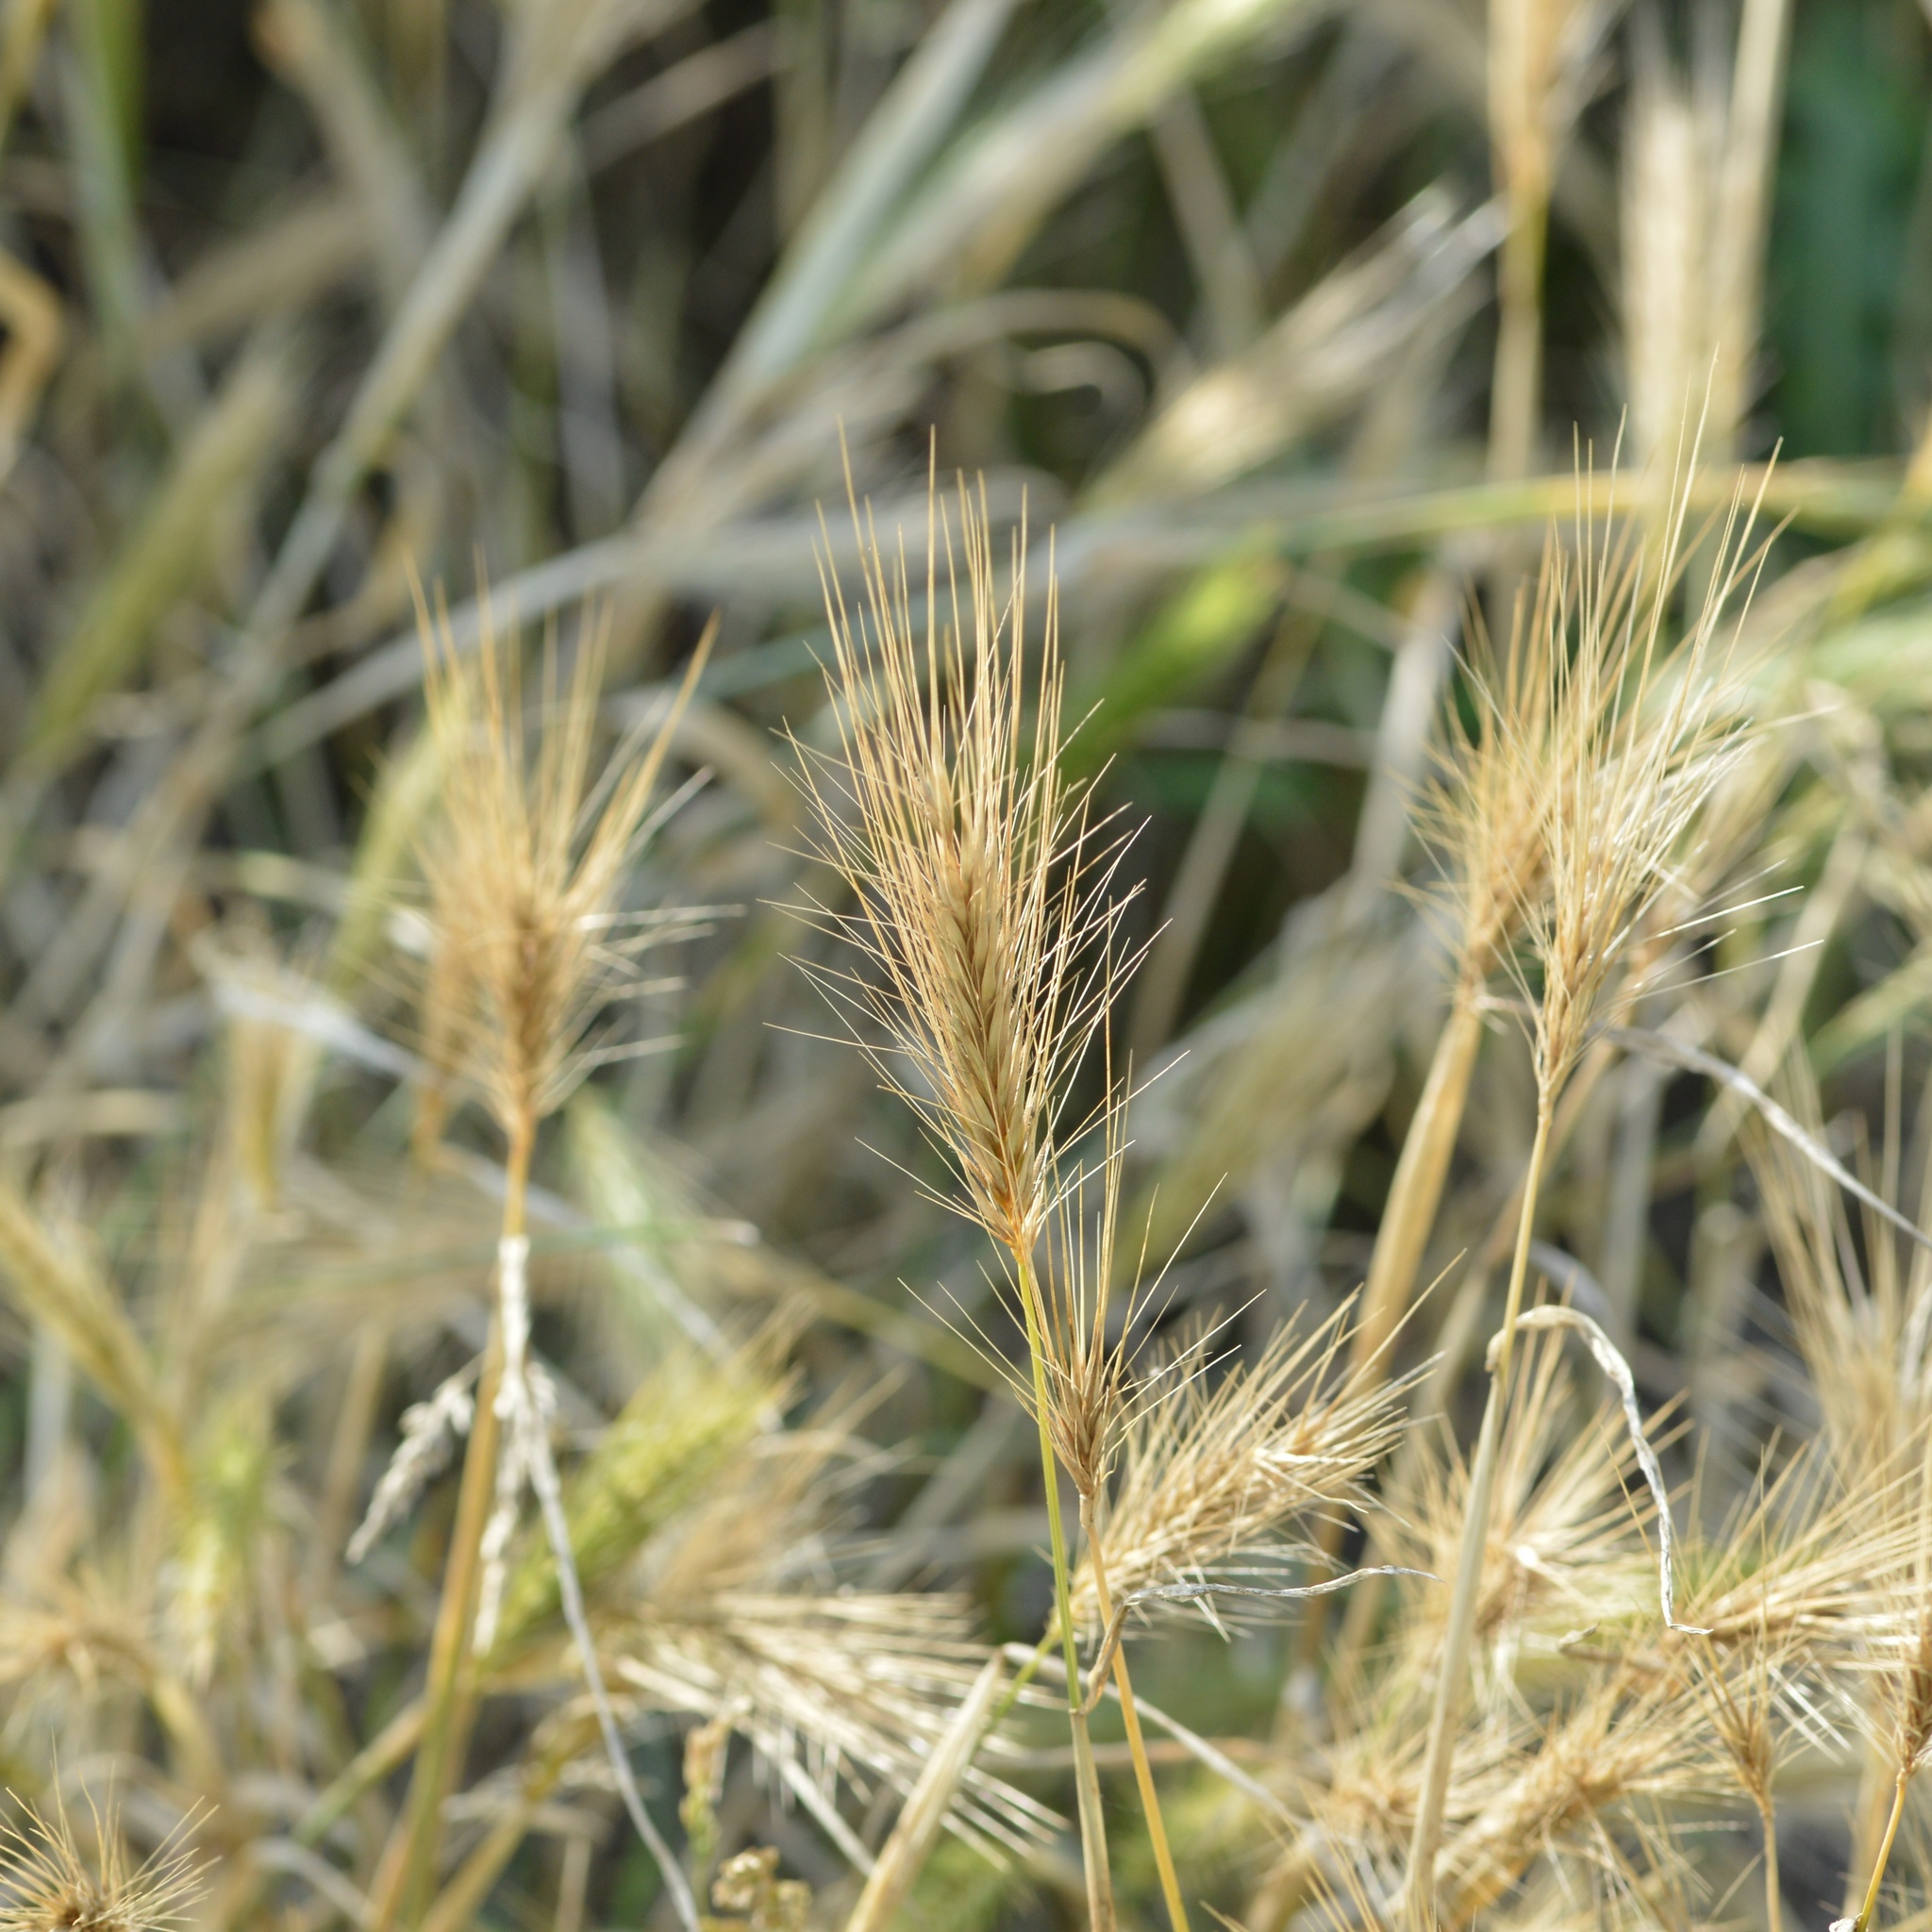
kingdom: Plantae
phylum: Tracheophyta
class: Liliopsida
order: Poales
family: Poaceae
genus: Hordeum
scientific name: Hordeum murinum
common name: Wall barley
